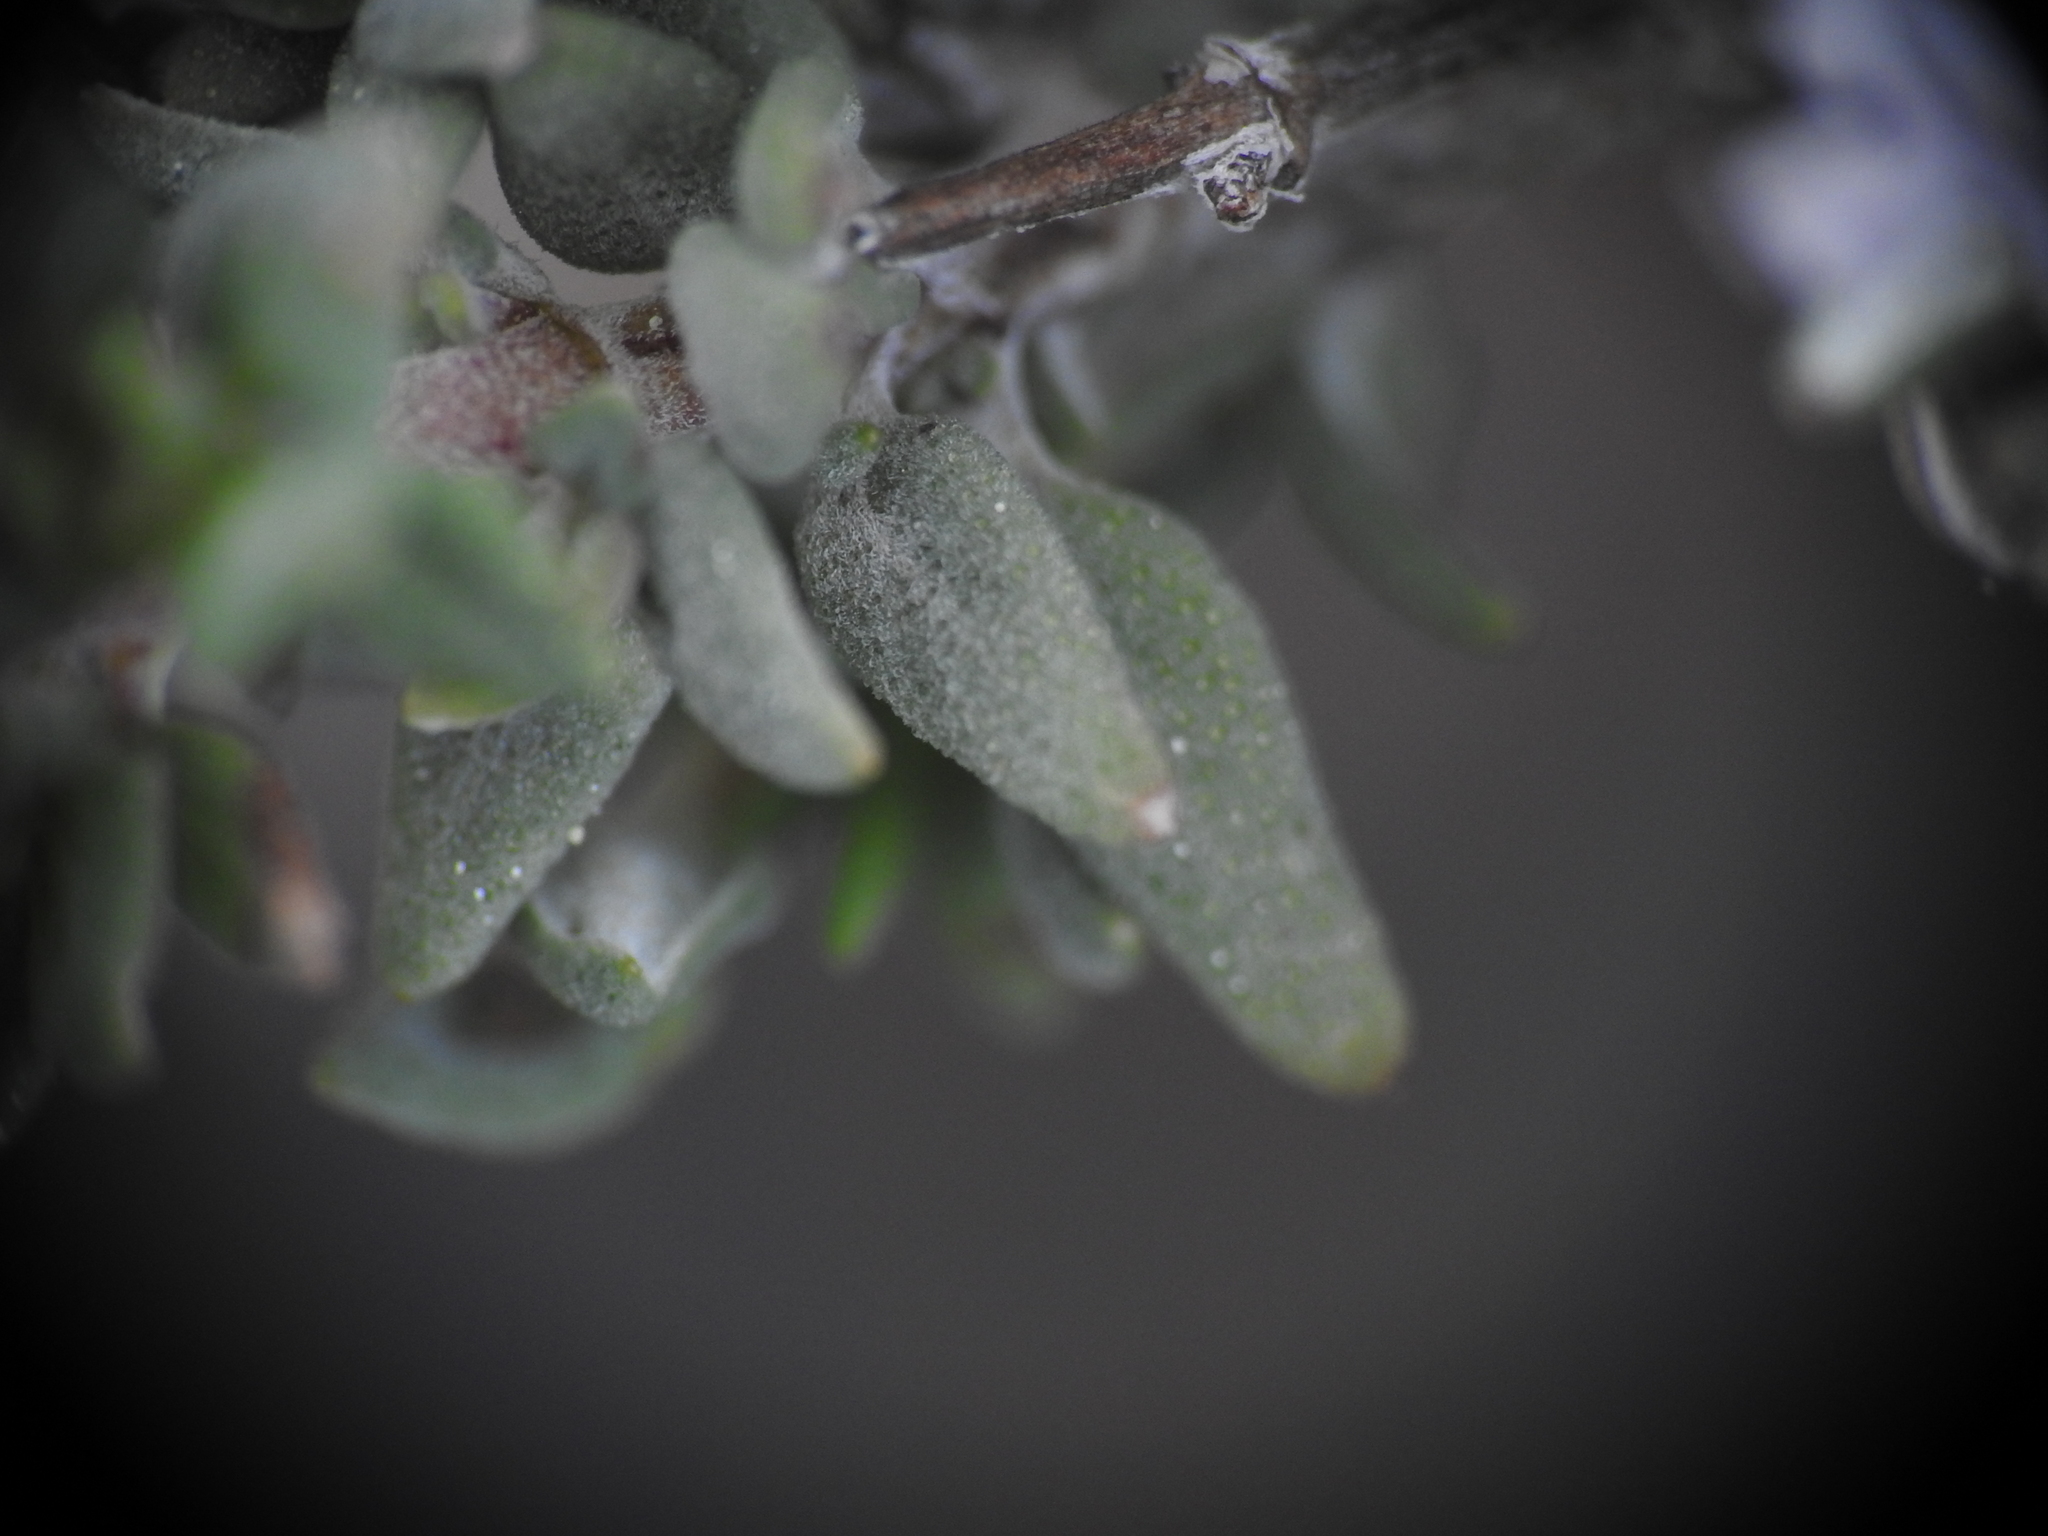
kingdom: Plantae
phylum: Tracheophyta
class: Magnoliopsida
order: Lamiales
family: Lamiaceae
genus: Thymus
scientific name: Thymus vulgaris
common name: Garden thyme
